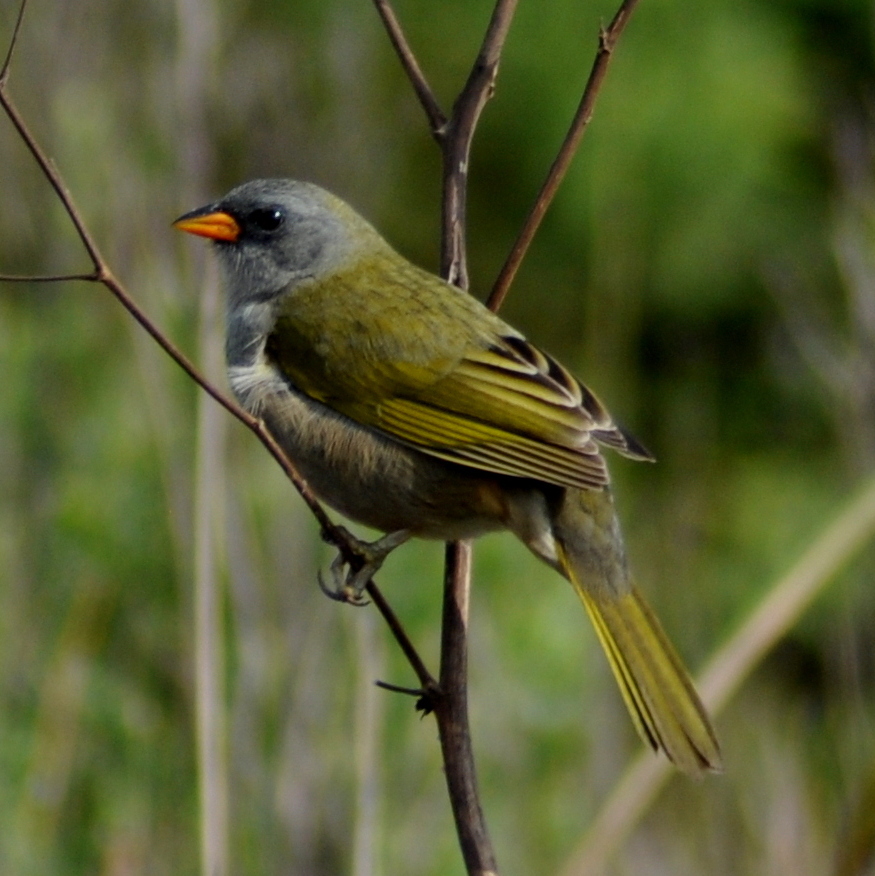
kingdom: Animalia
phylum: Chordata
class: Aves
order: Passeriformes
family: Thraupidae
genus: Embernagra
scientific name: Embernagra platensis
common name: Pampa finch
